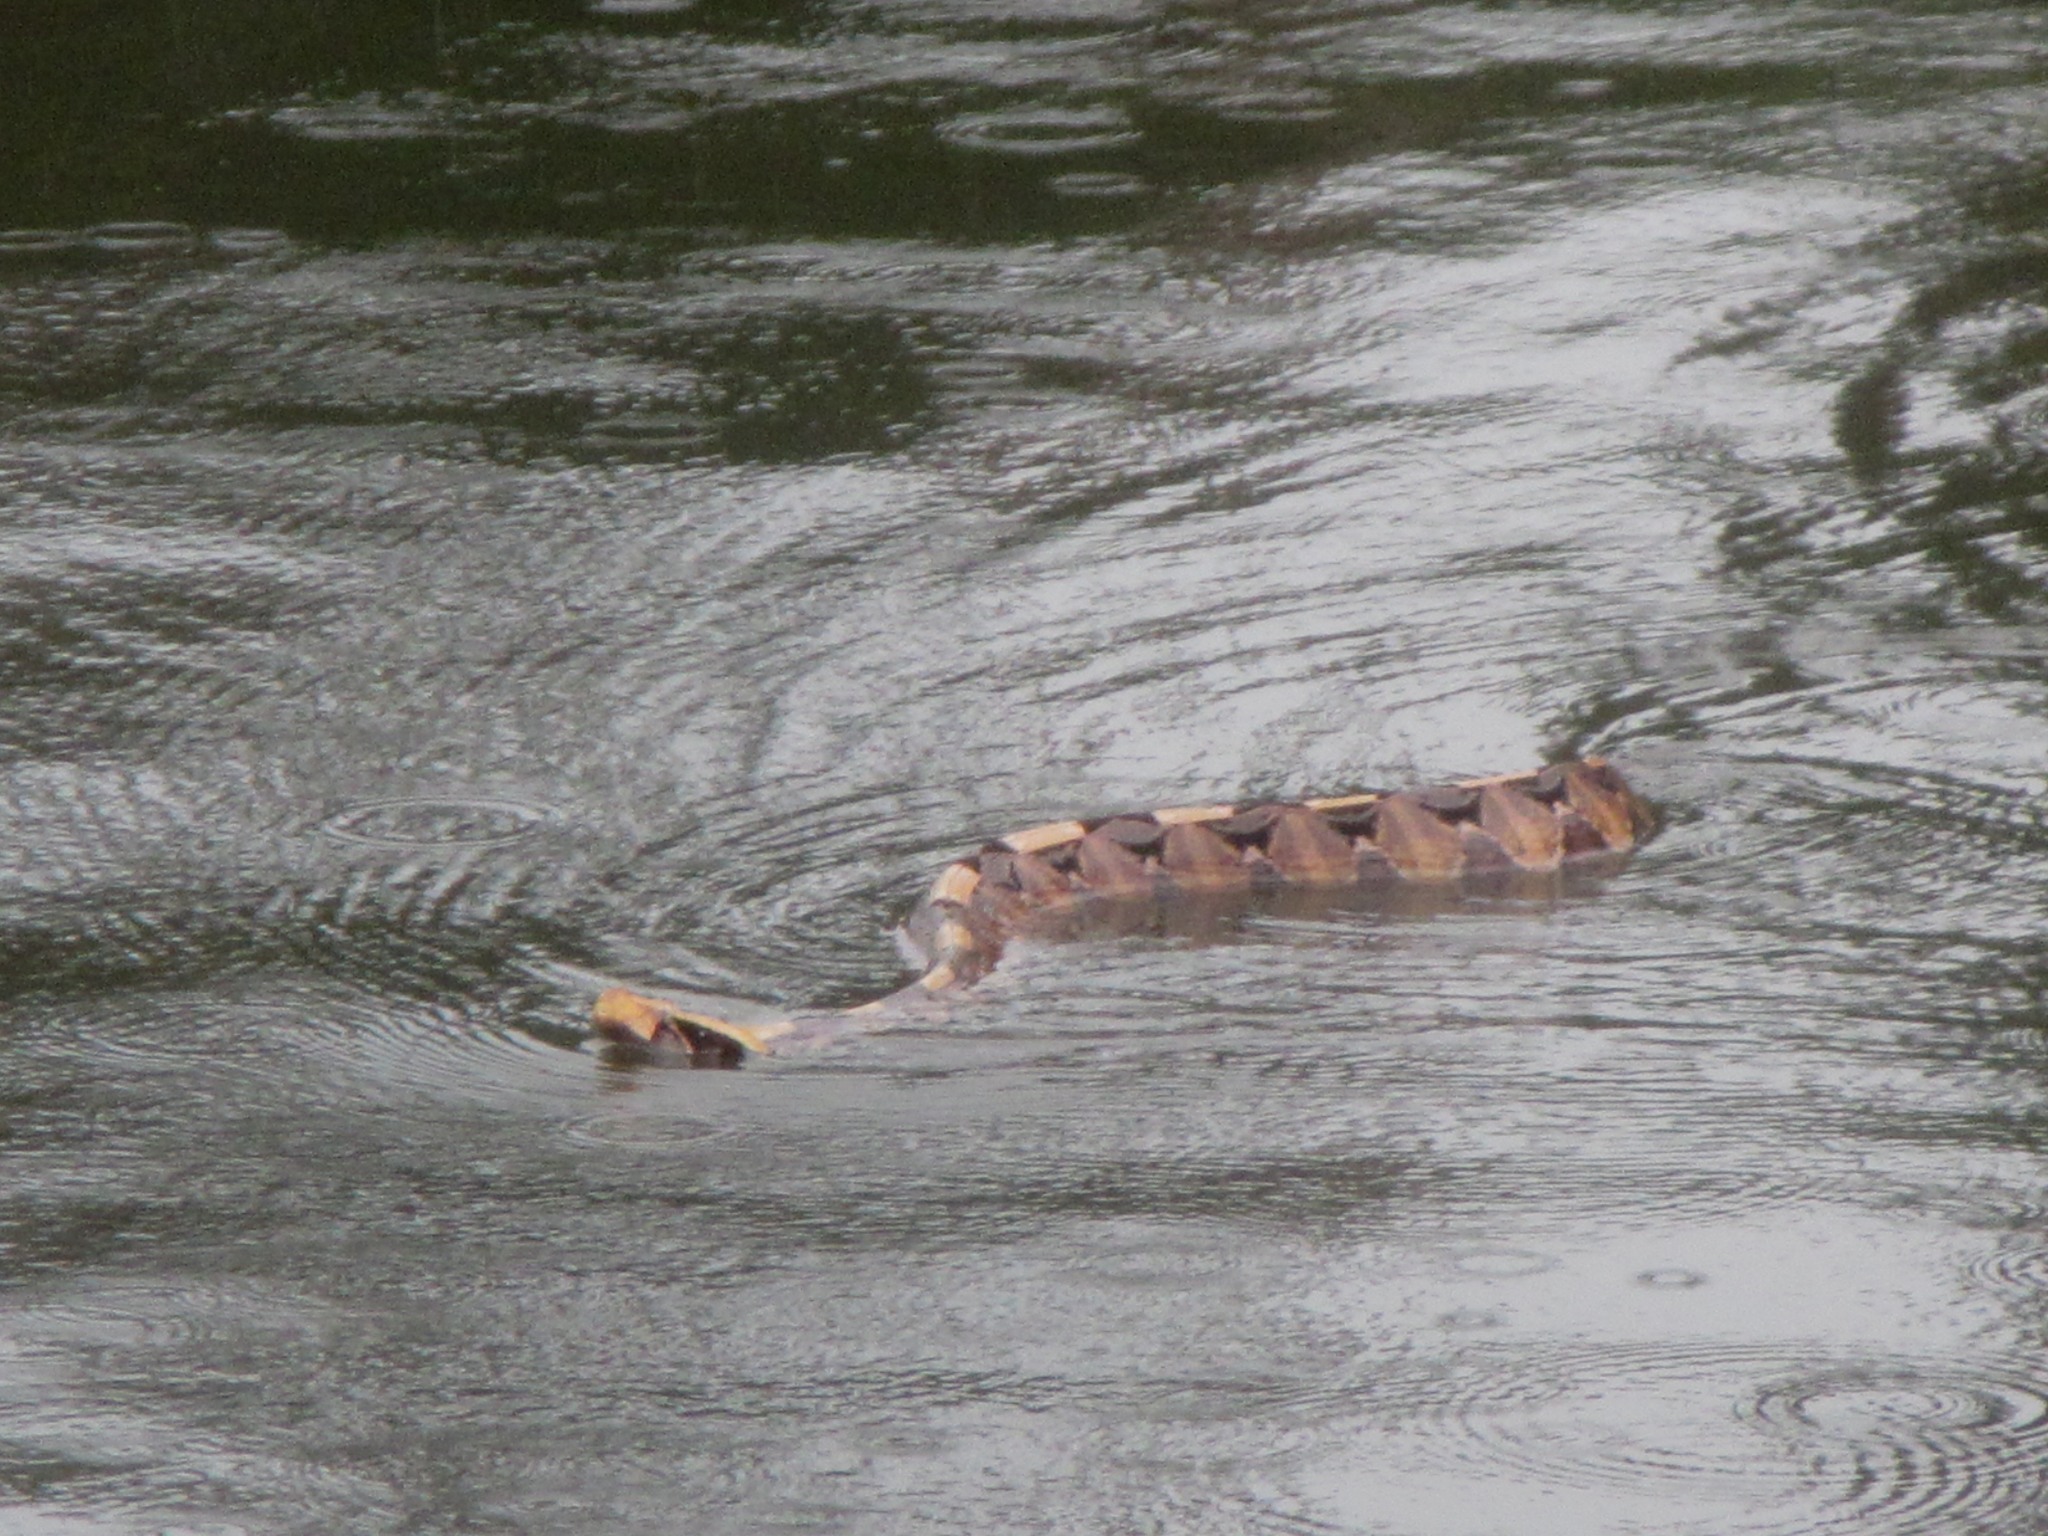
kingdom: Animalia
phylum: Chordata
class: Squamata
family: Viperidae
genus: Bitis
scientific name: Bitis gabonica
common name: Gaboon adder
